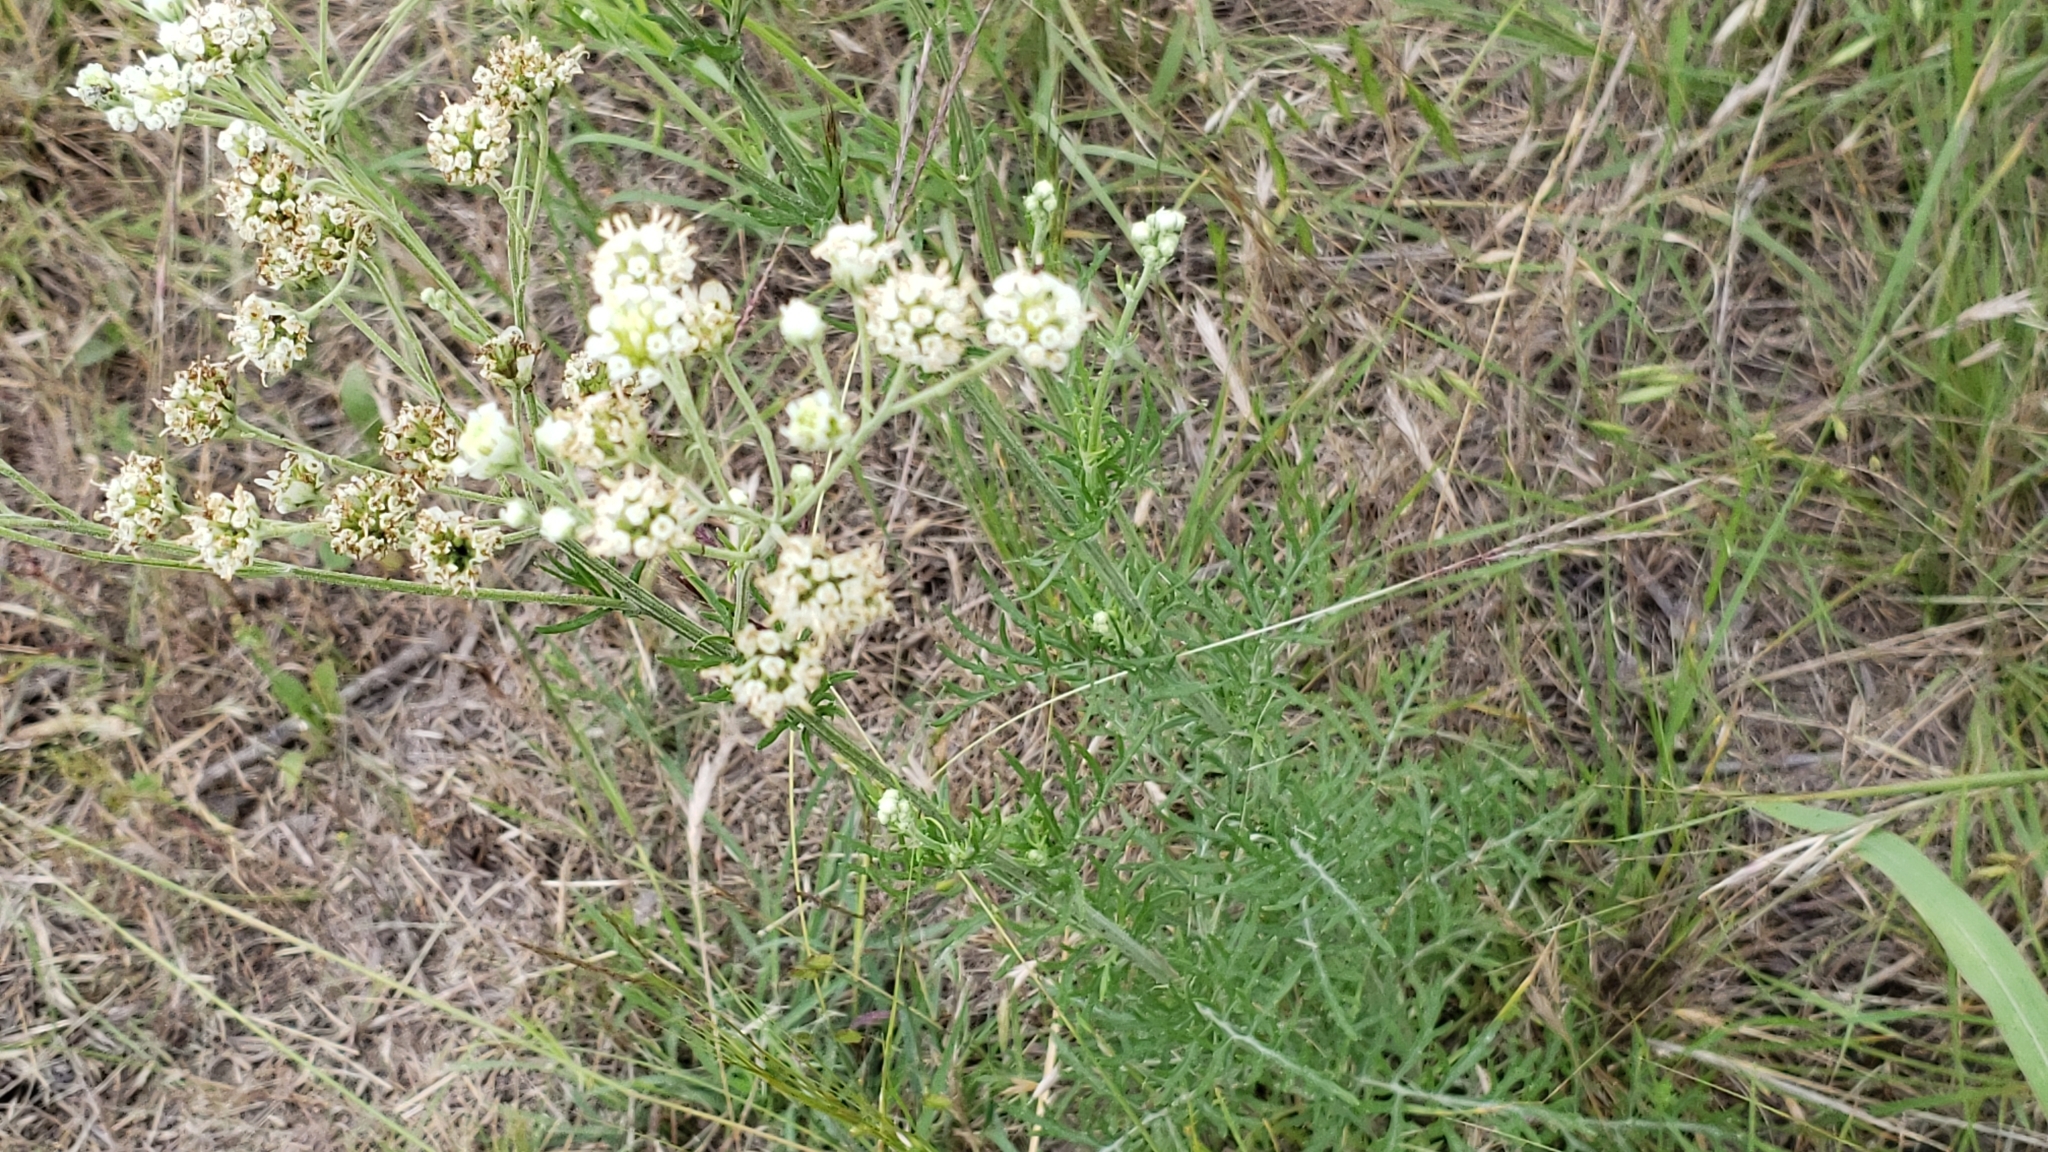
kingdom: Plantae
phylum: Tracheophyta
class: Magnoliopsida
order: Asterales
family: Asteraceae
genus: Hymenopappus
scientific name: Hymenopappus scabiosaeus
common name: Carolina woollywhite
